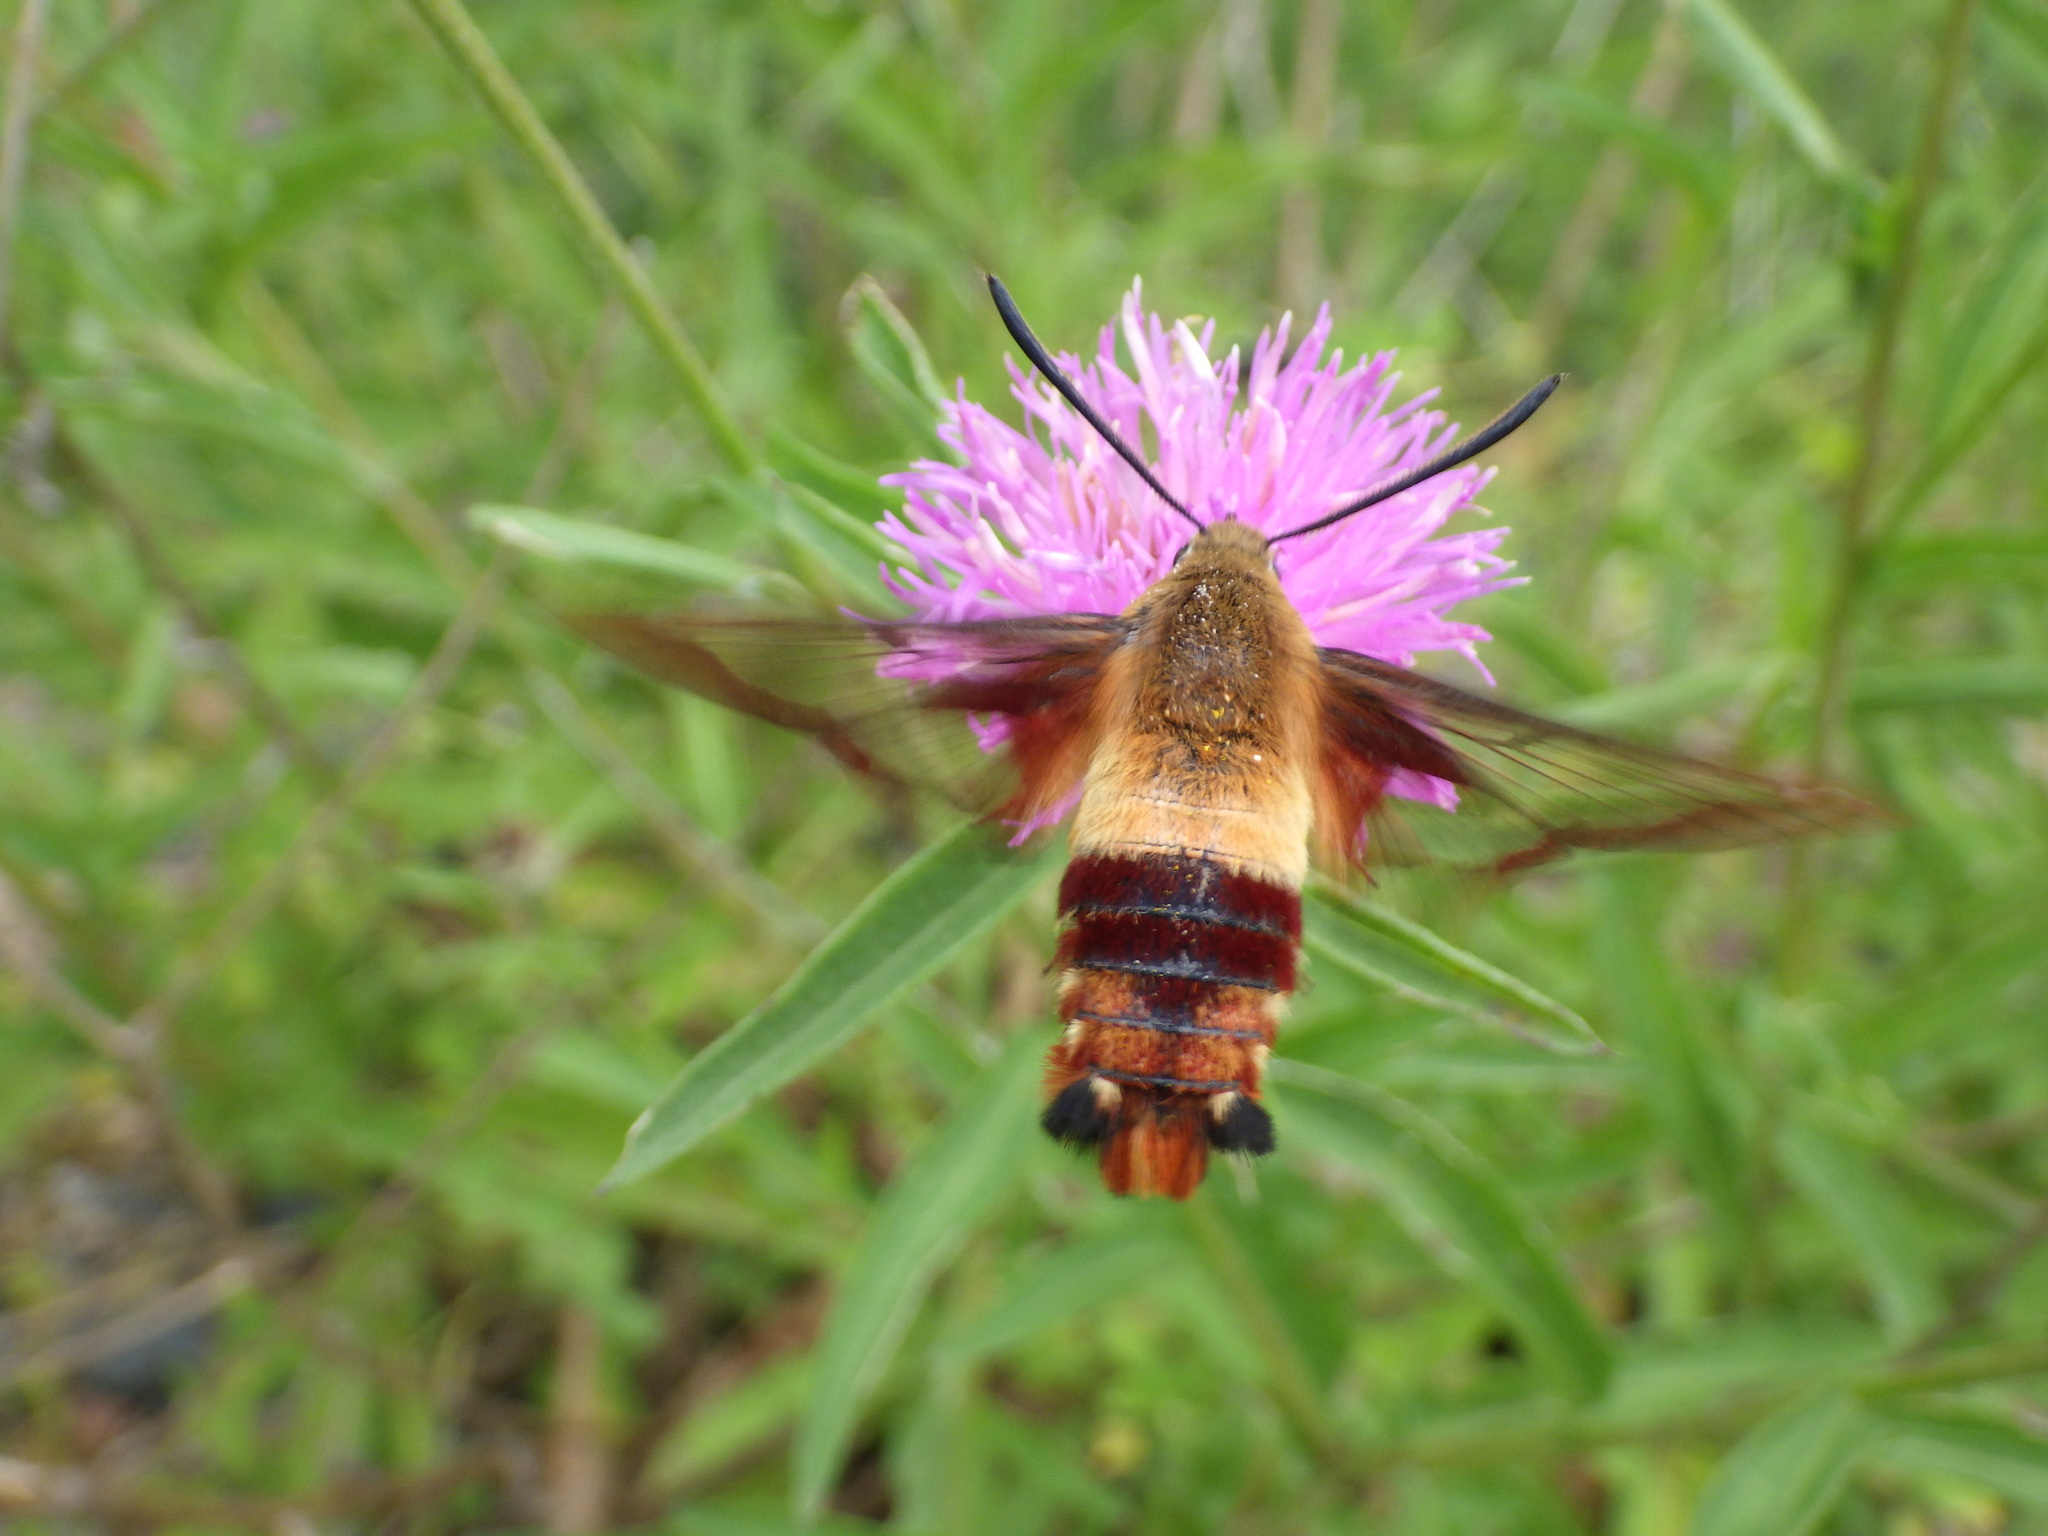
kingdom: Animalia
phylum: Arthropoda
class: Insecta
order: Lepidoptera
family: Sphingidae
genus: Hemaris
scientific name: Hemaris thysbe
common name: Common clear-wing
